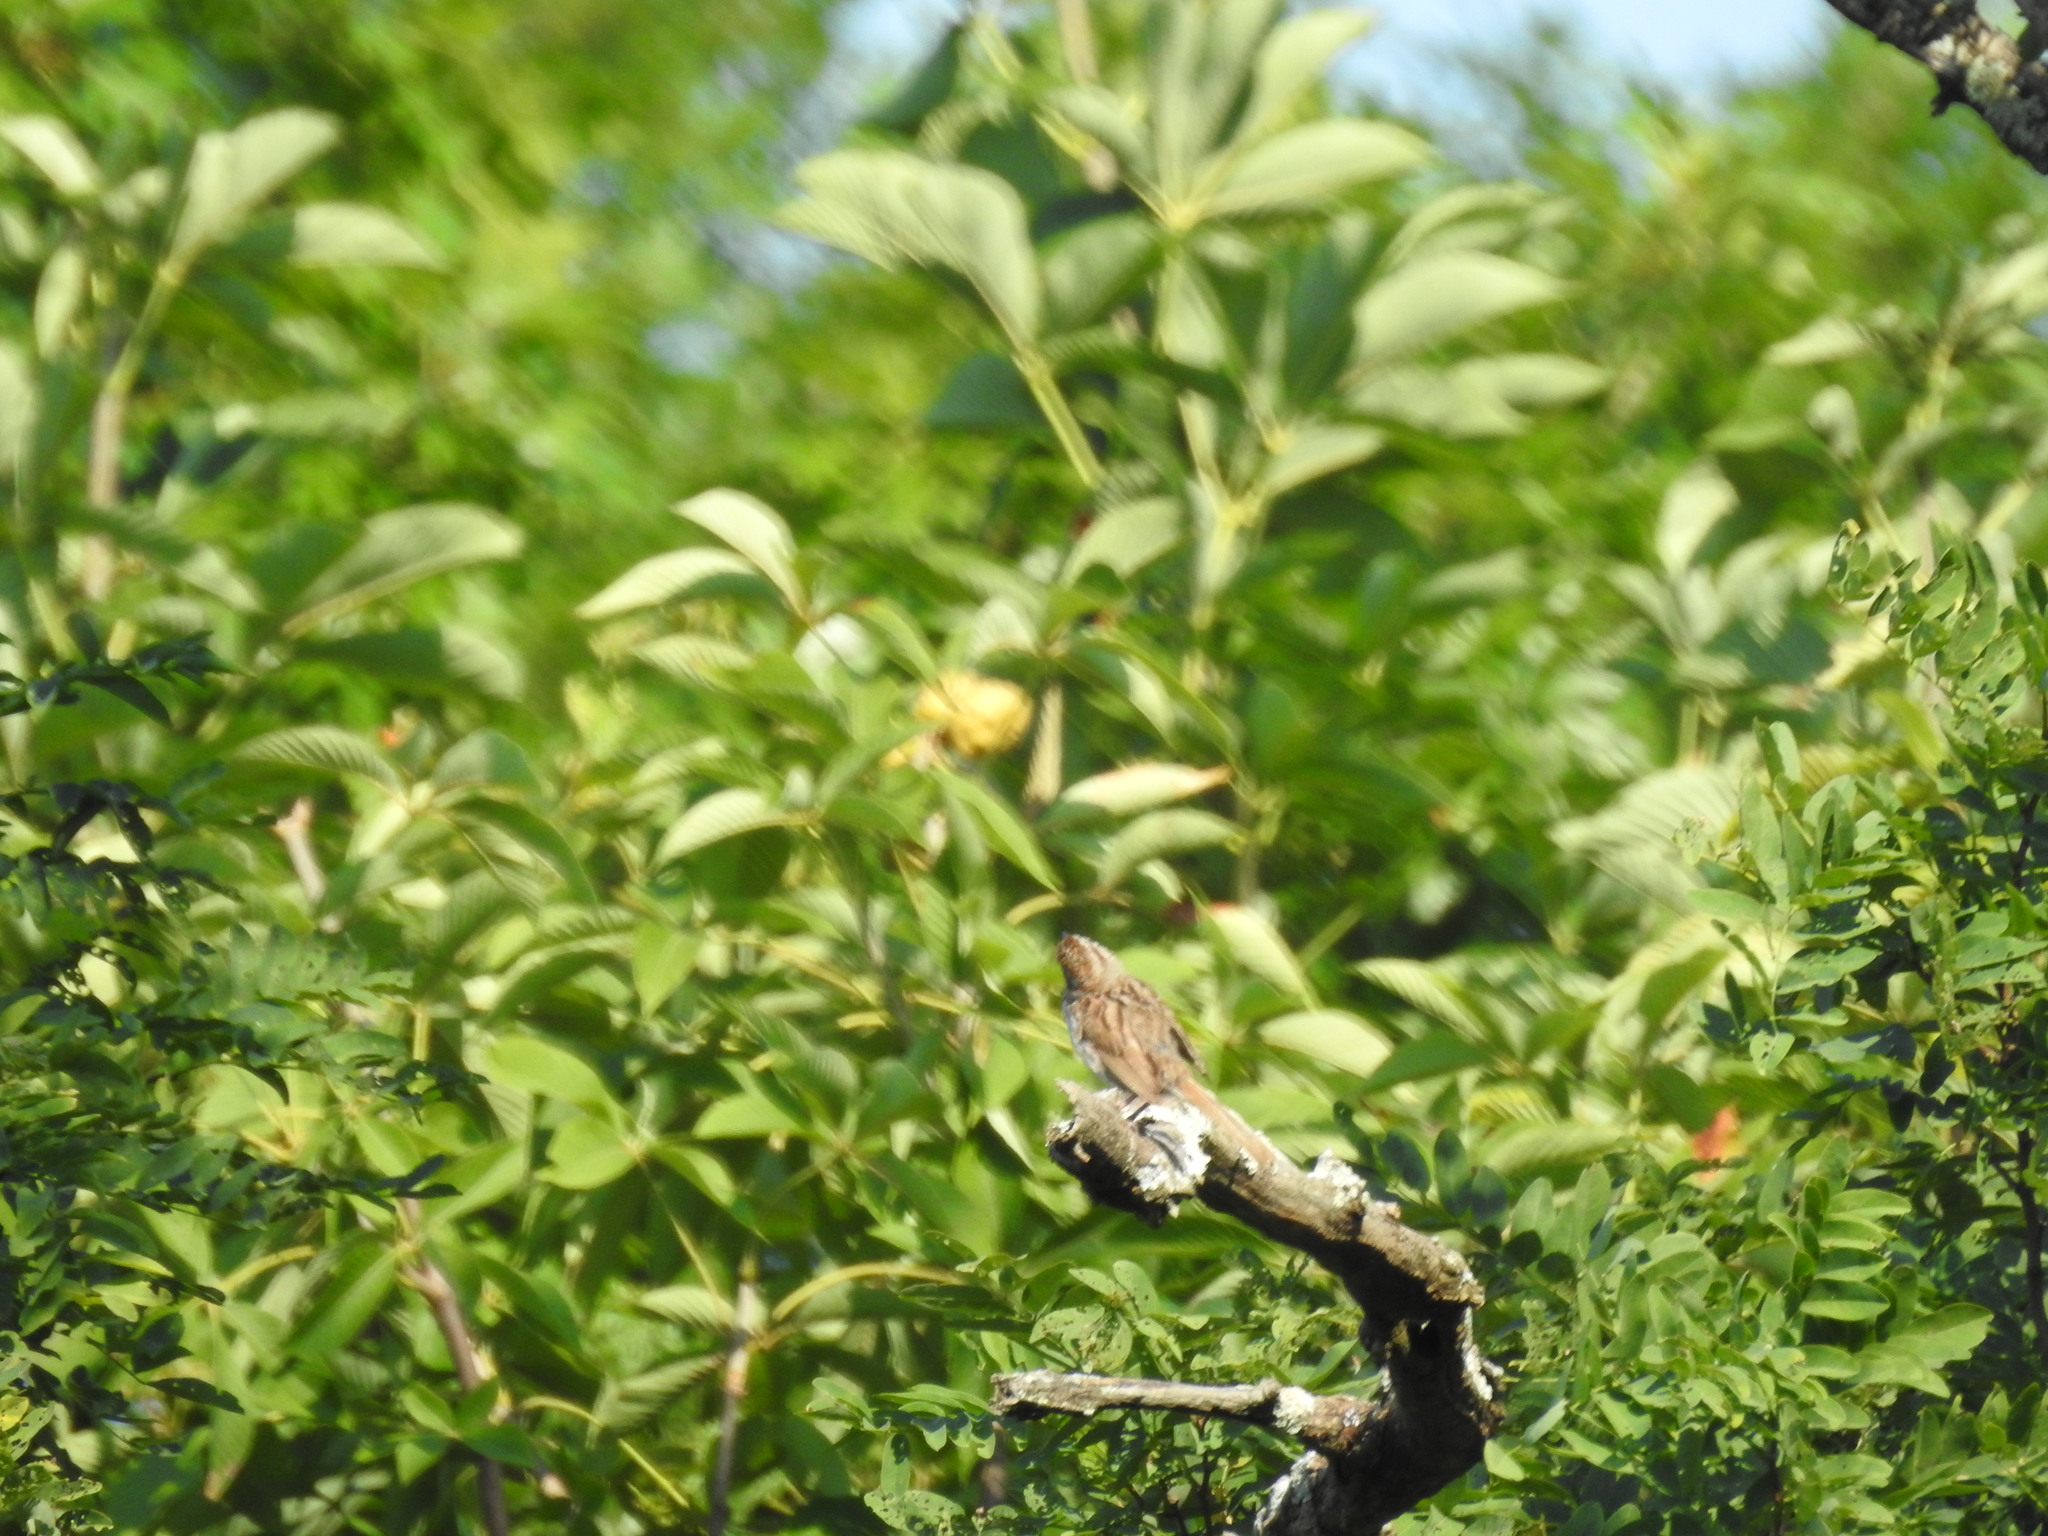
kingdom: Animalia
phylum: Chordata
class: Aves
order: Passeriformes
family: Passerellidae
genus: Melospiza
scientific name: Melospiza melodia
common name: Song sparrow
